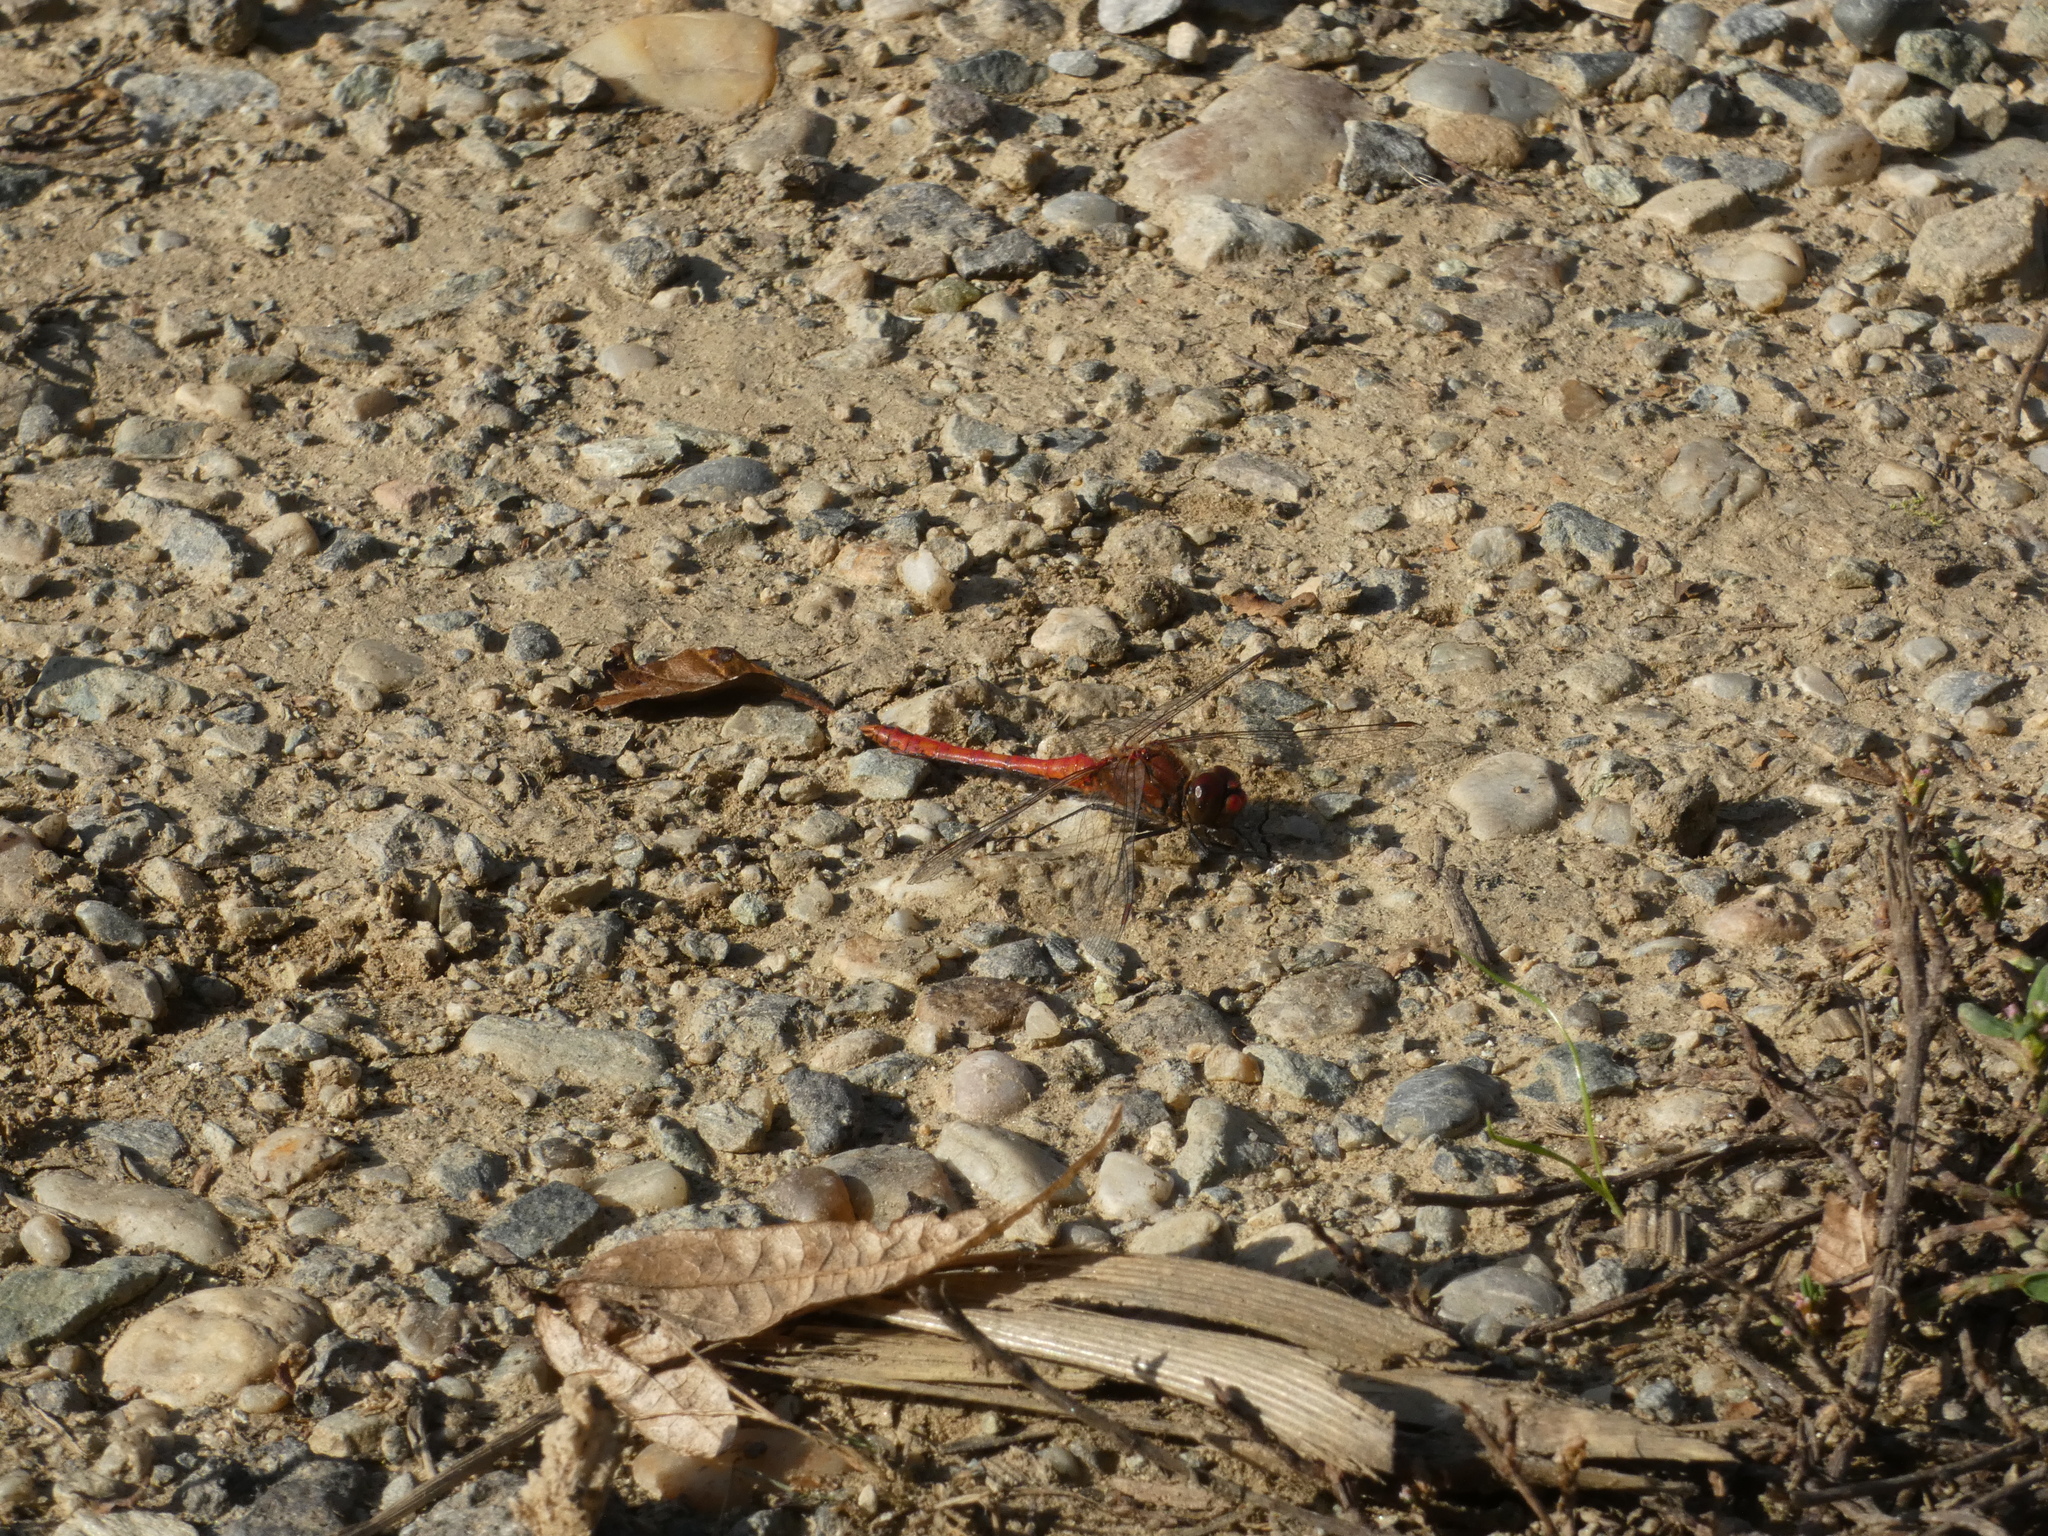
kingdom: Animalia
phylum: Arthropoda
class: Insecta
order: Odonata
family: Libellulidae
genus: Sympetrum
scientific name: Sympetrum sanguineum
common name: Ruddy darter
